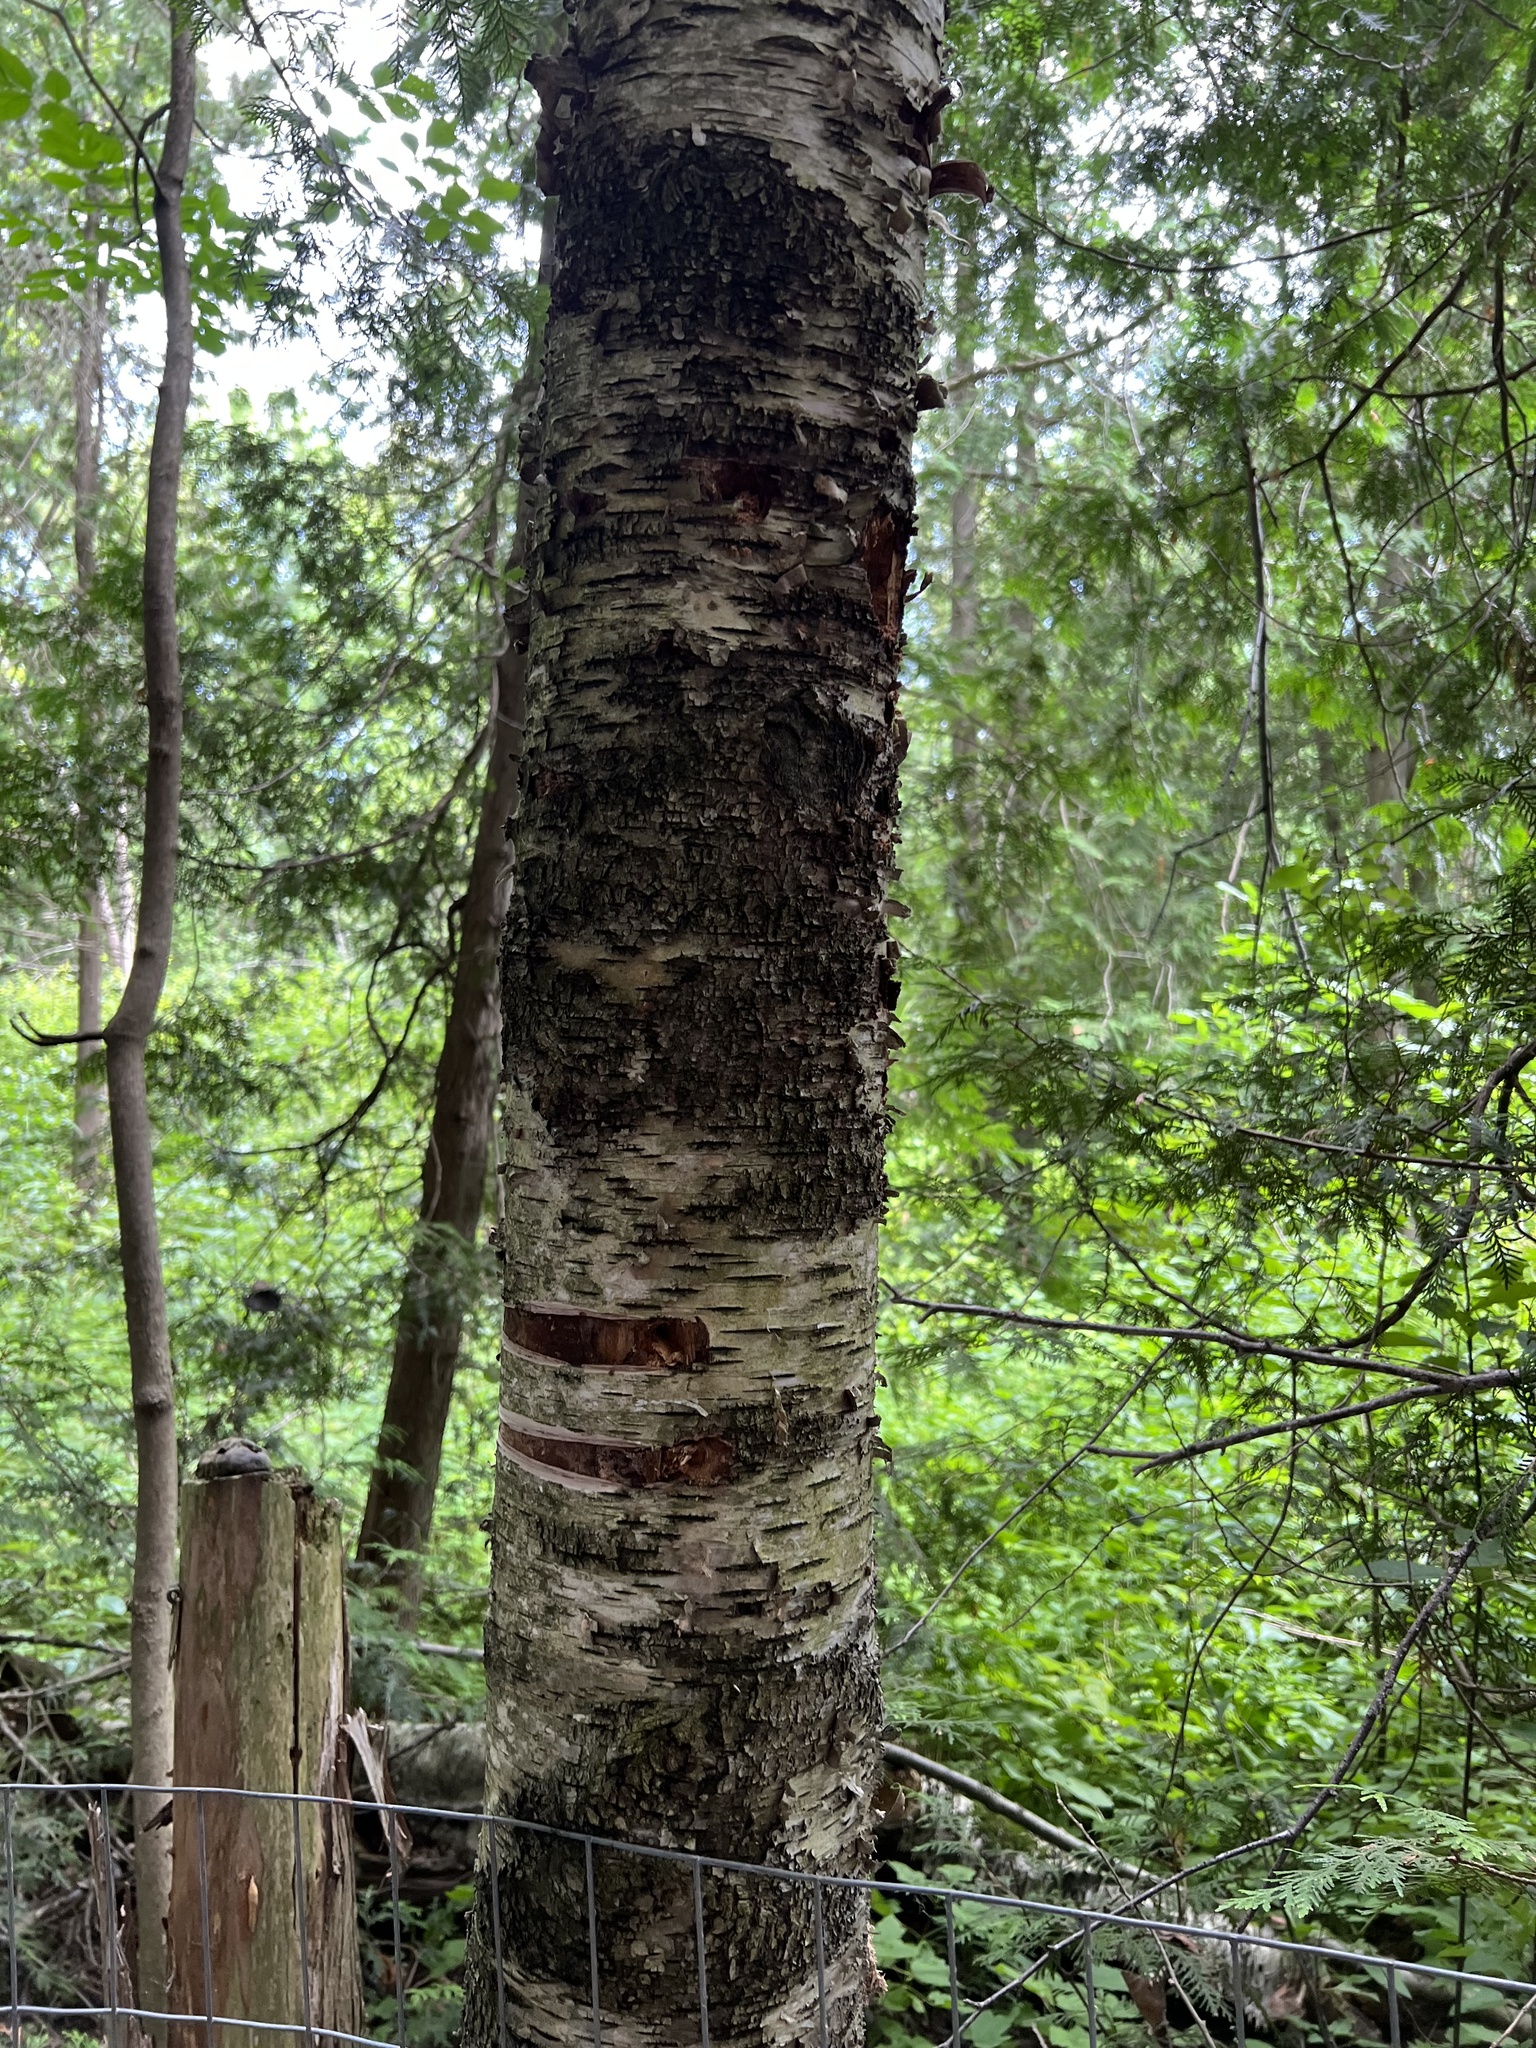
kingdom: Fungi
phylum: Basidiomycota
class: Agaricomycetes
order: Polyporales
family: Polyporaceae
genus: Fomes
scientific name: Fomes fomentarius
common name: Hoof fungus
